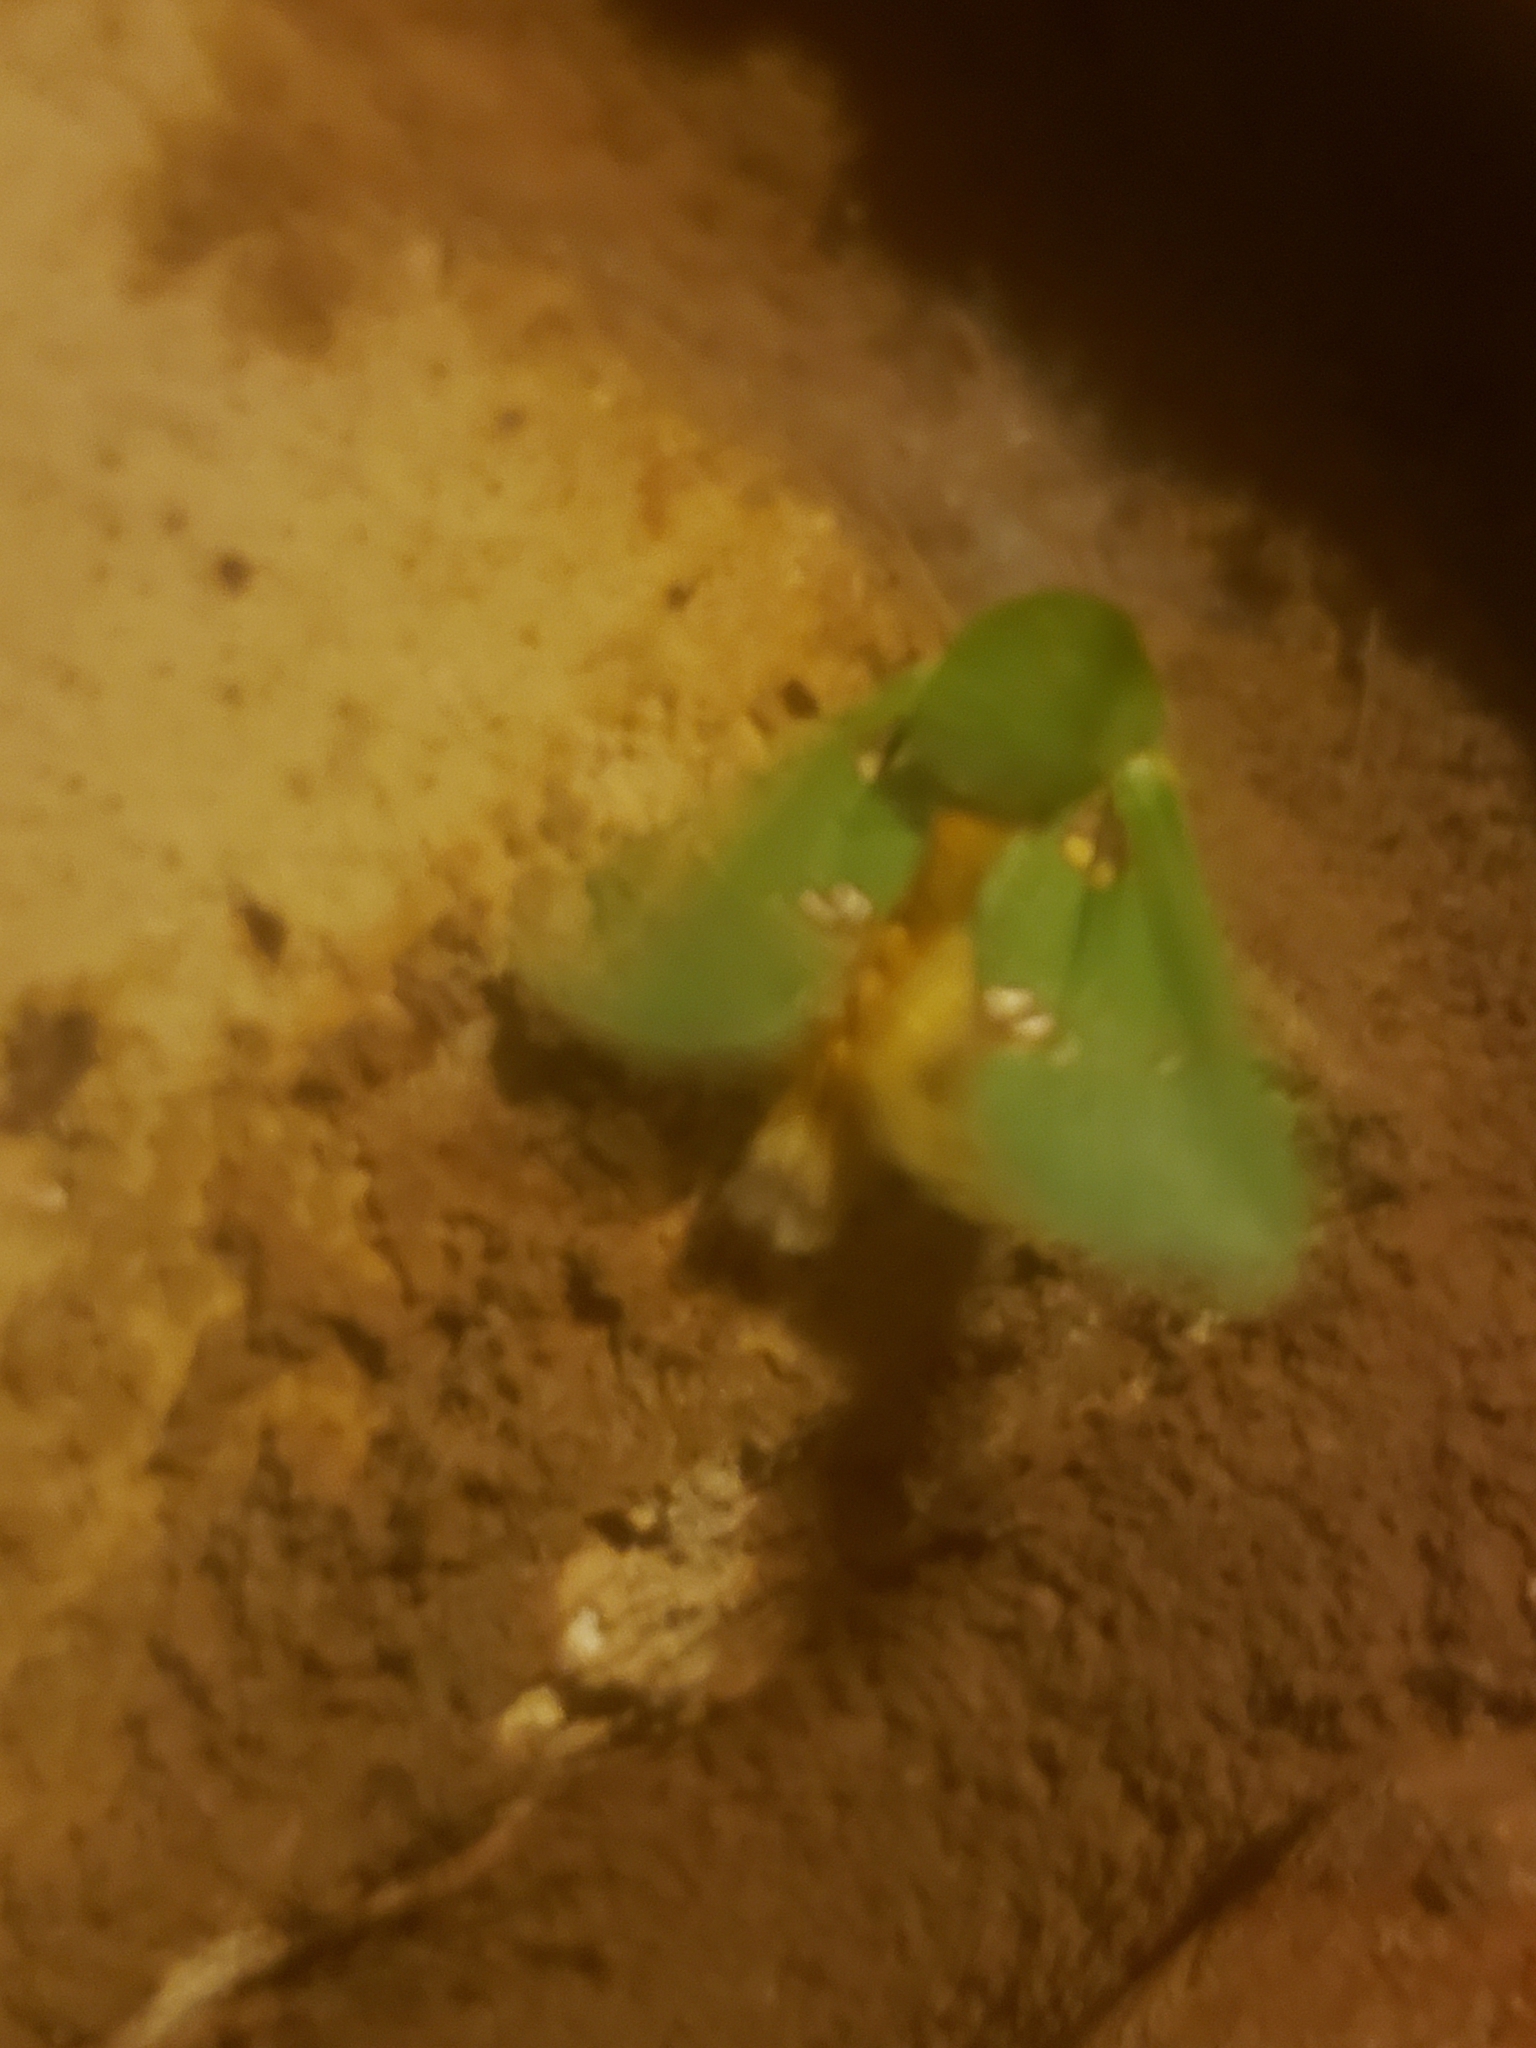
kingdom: Animalia
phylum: Arthropoda
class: Insecta
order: Lepidoptera
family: Limacodidae
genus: Taeda
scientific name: Taeda aetitis
